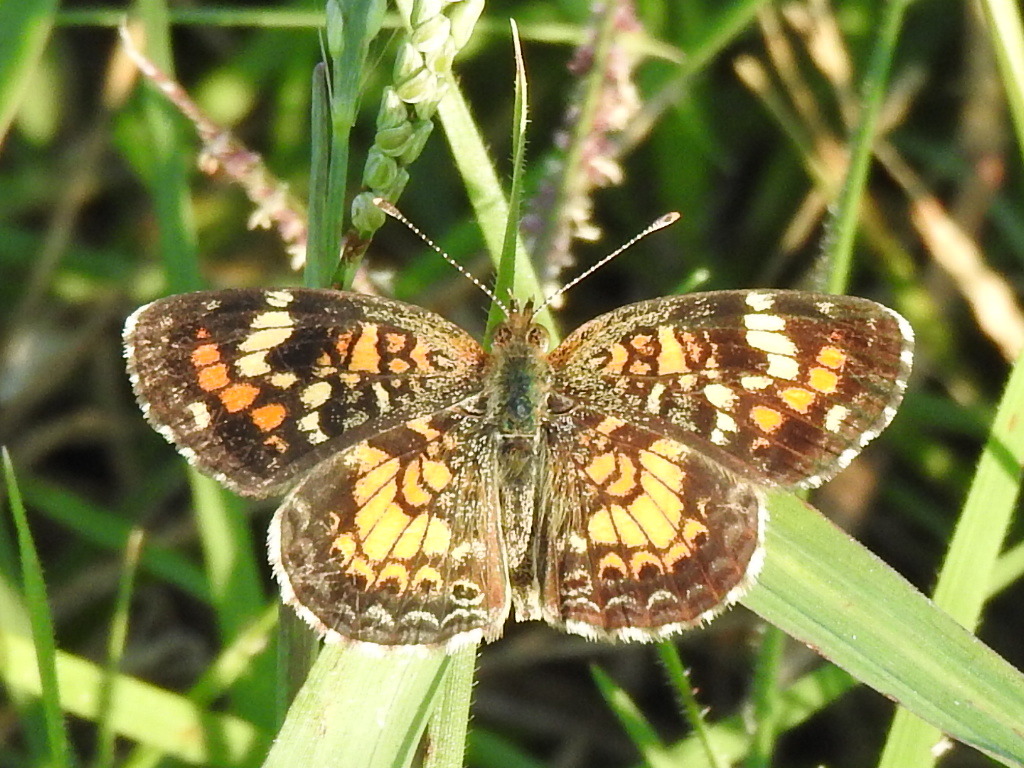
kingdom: Animalia
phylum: Arthropoda
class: Insecta
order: Lepidoptera
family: Nymphalidae
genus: Phyciodes
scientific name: Phyciodes phaon
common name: Phaon crescent
